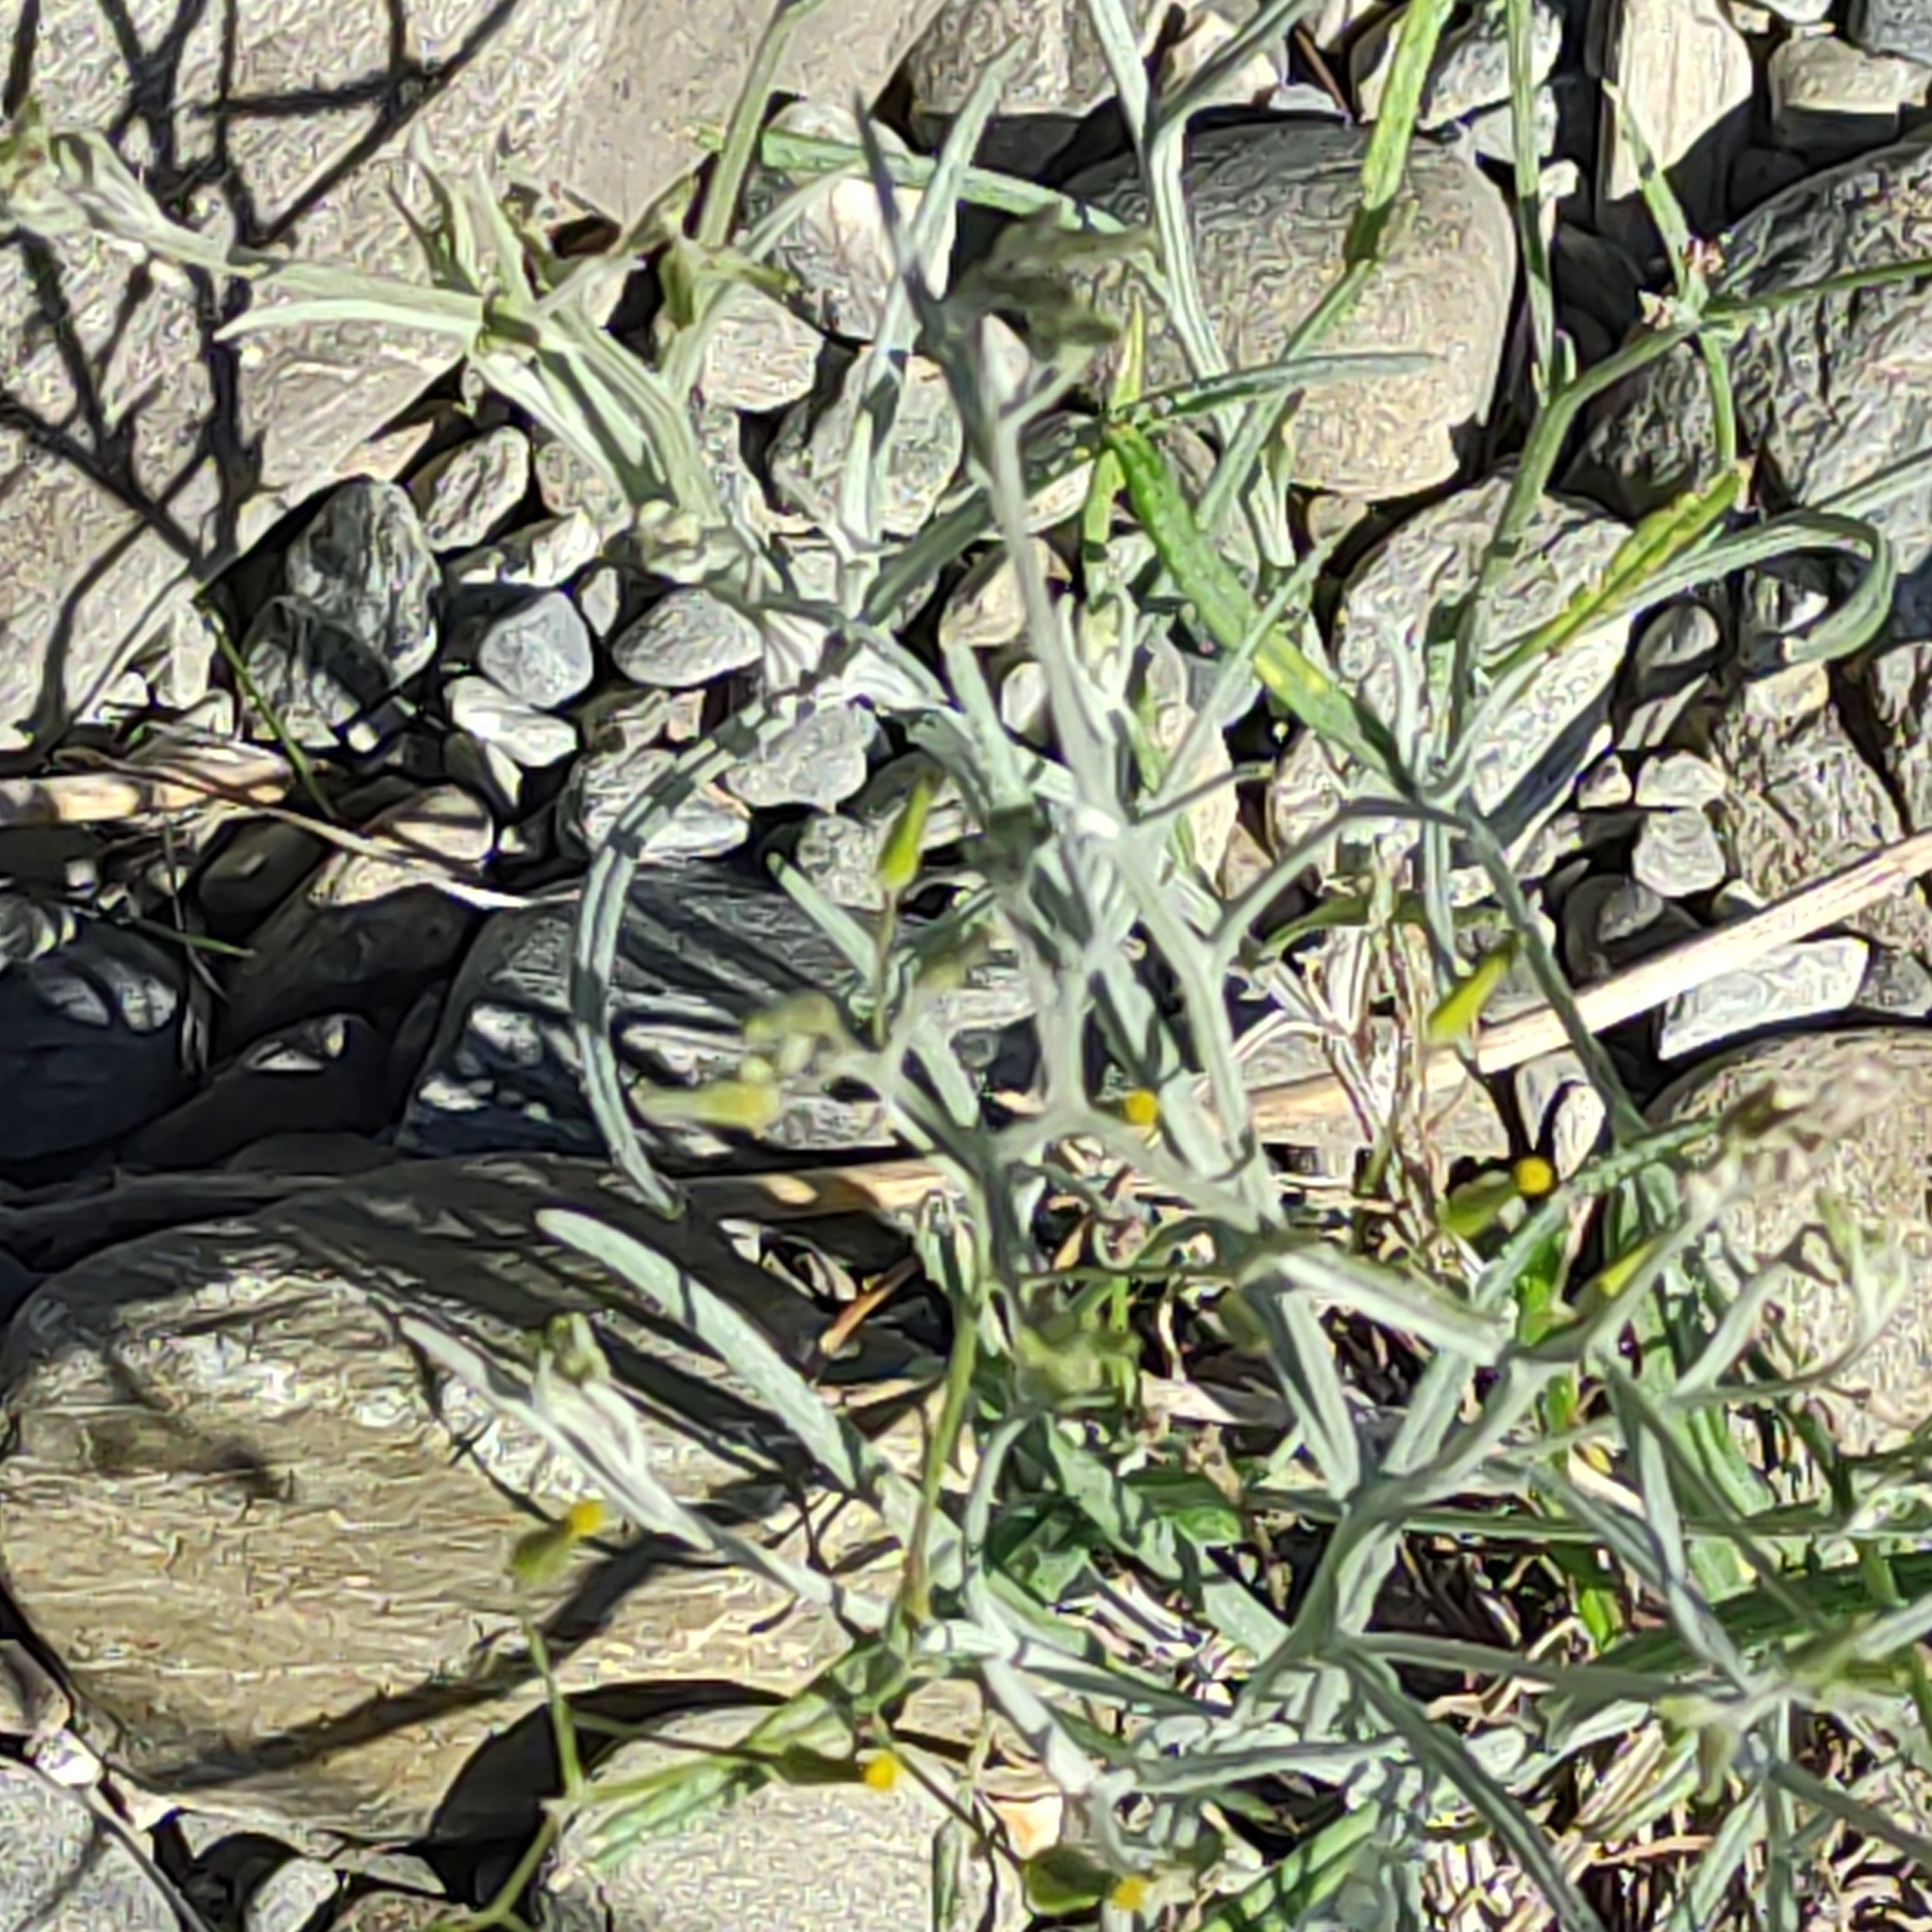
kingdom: Plantae
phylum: Tracheophyta
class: Magnoliopsida
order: Asterales
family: Asteraceae
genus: Senecio
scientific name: Senecio quadridentatus
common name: Cotton fireweed
